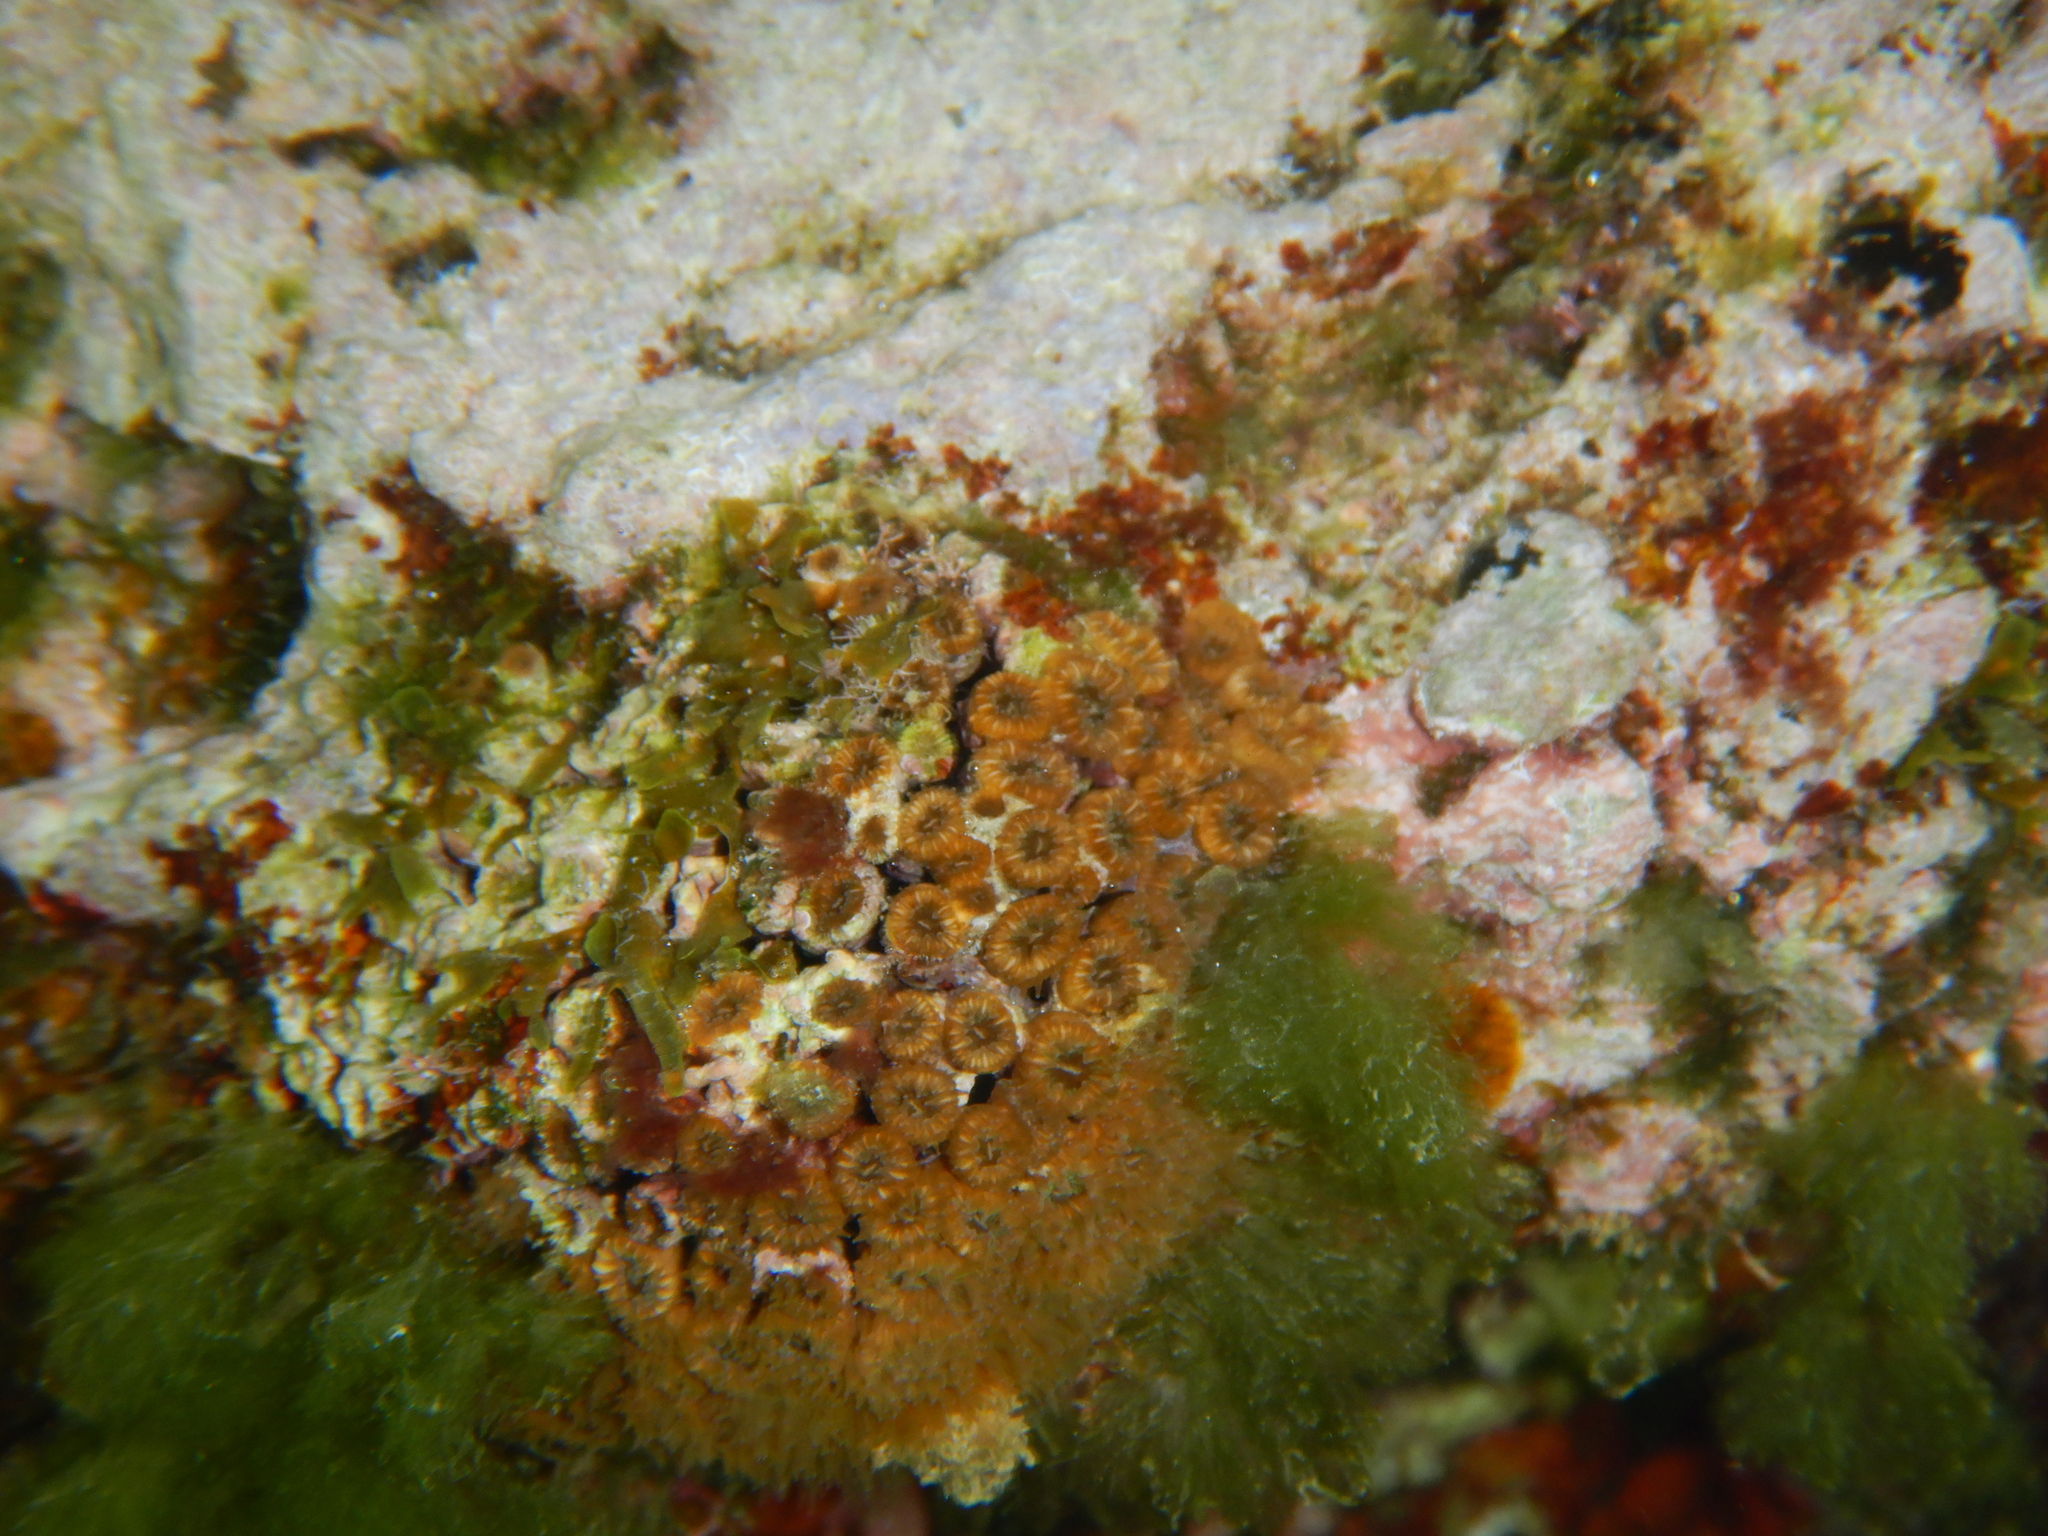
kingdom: Animalia
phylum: Cnidaria
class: Anthozoa
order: Scleractinia
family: Cladocoridae
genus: Cladocora
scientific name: Cladocora caespitosa
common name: Cladocora
